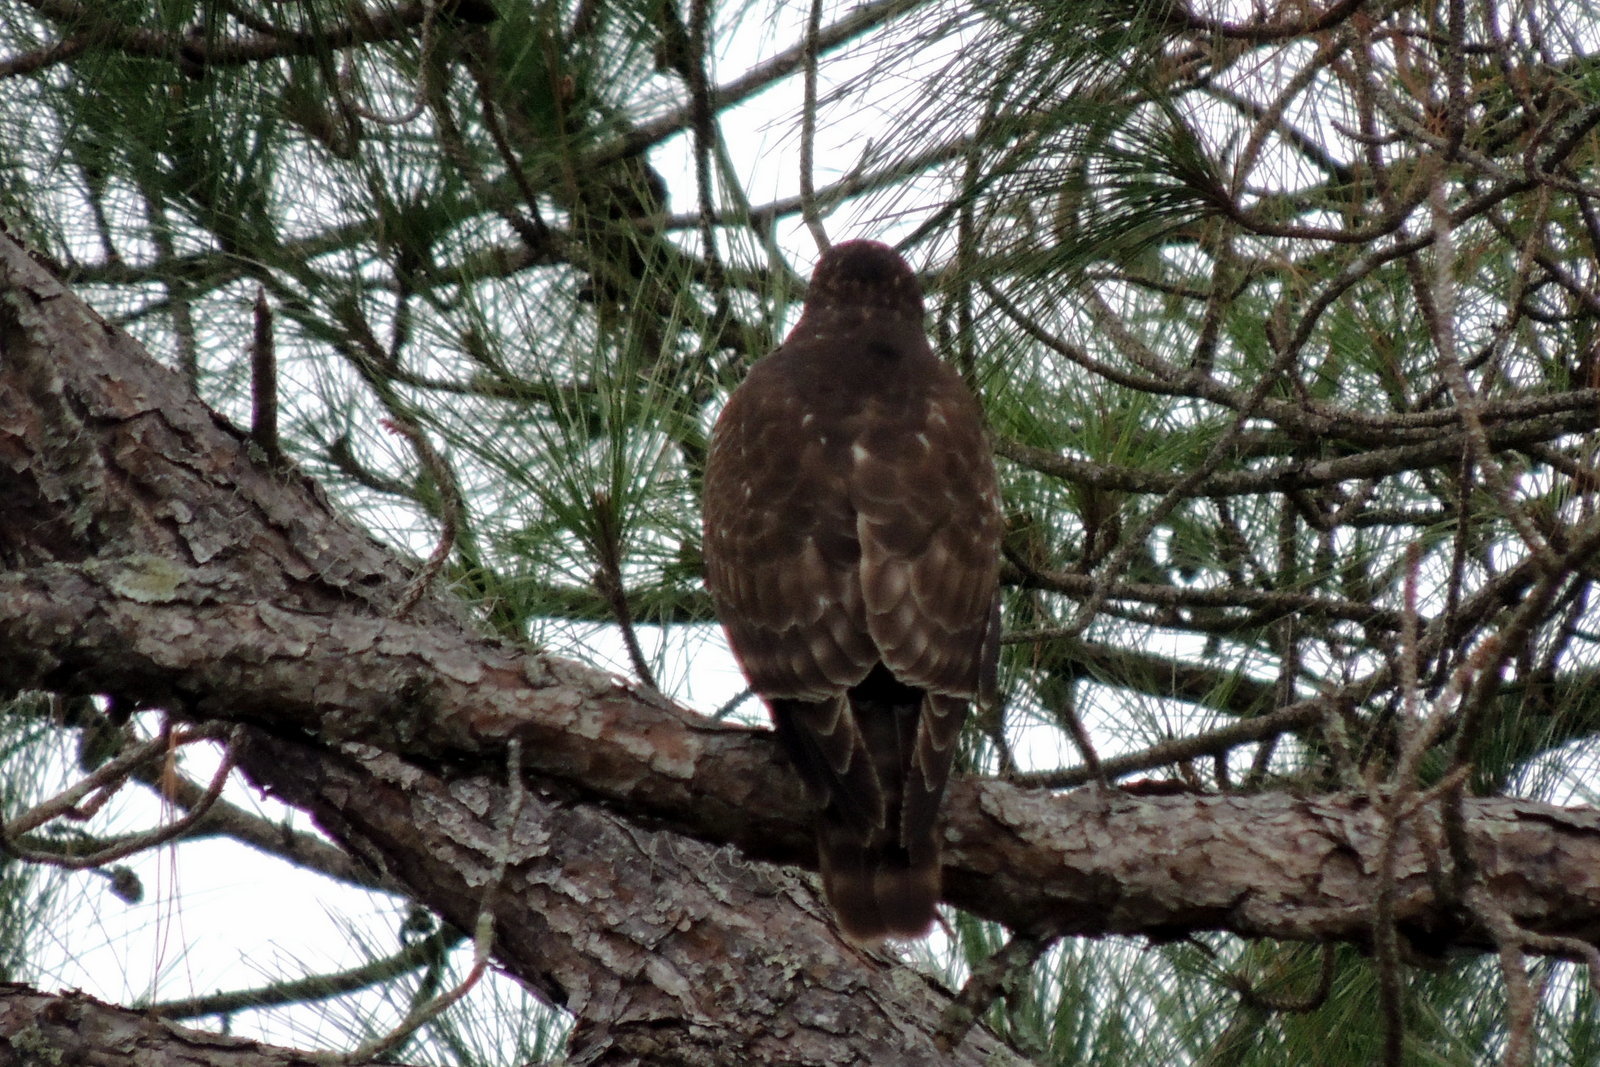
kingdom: Animalia
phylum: Chordata
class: Aves
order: Accipitriformes
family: Accipitridae
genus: Buteo
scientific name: Buteo lineatus
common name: Red-shouldered hawk
